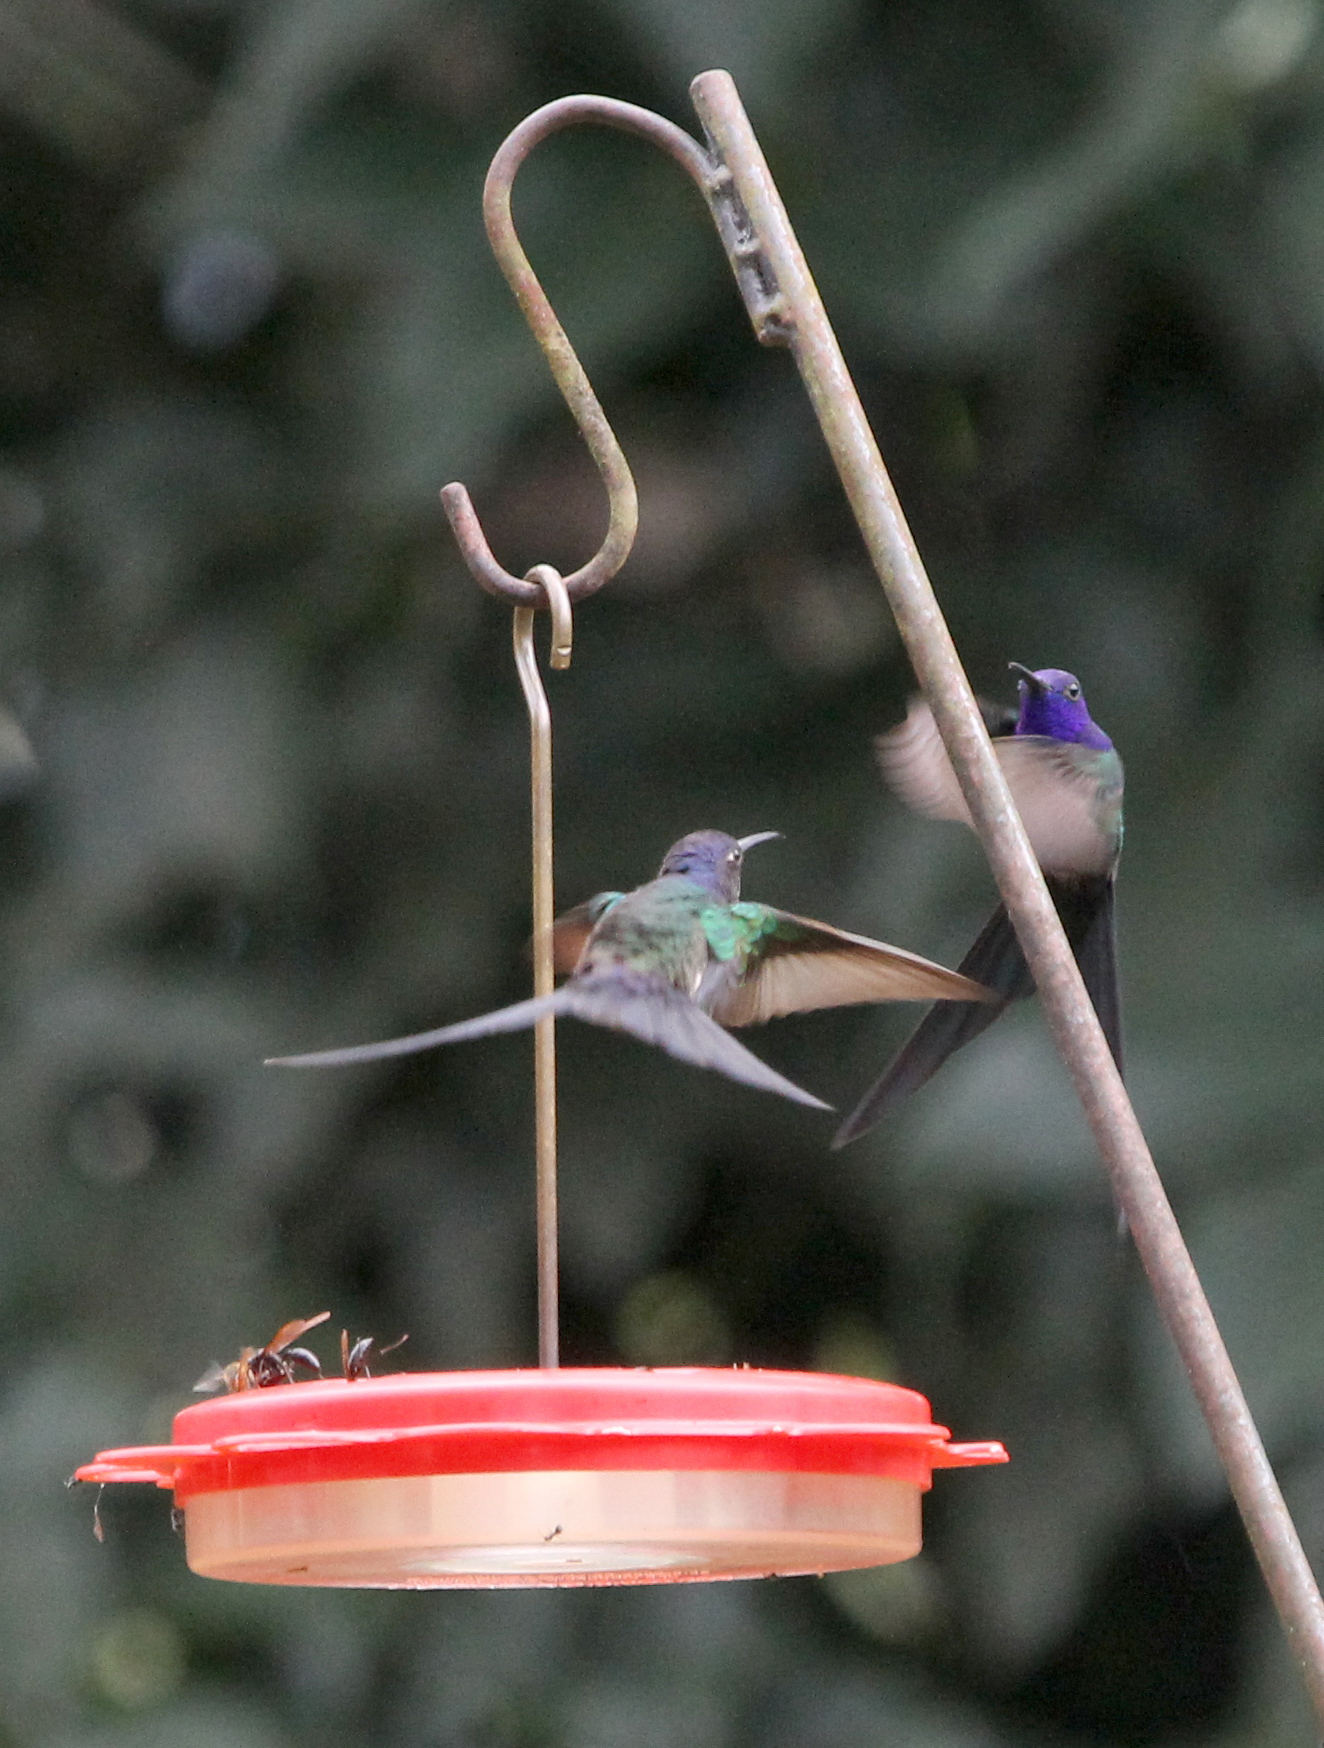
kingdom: Animalia
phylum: Chordata
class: Aves
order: Apodiformes
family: Trochilidae
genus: Eupetomena
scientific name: Eupetomena macroura
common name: Swallow-tailed hummingbird
